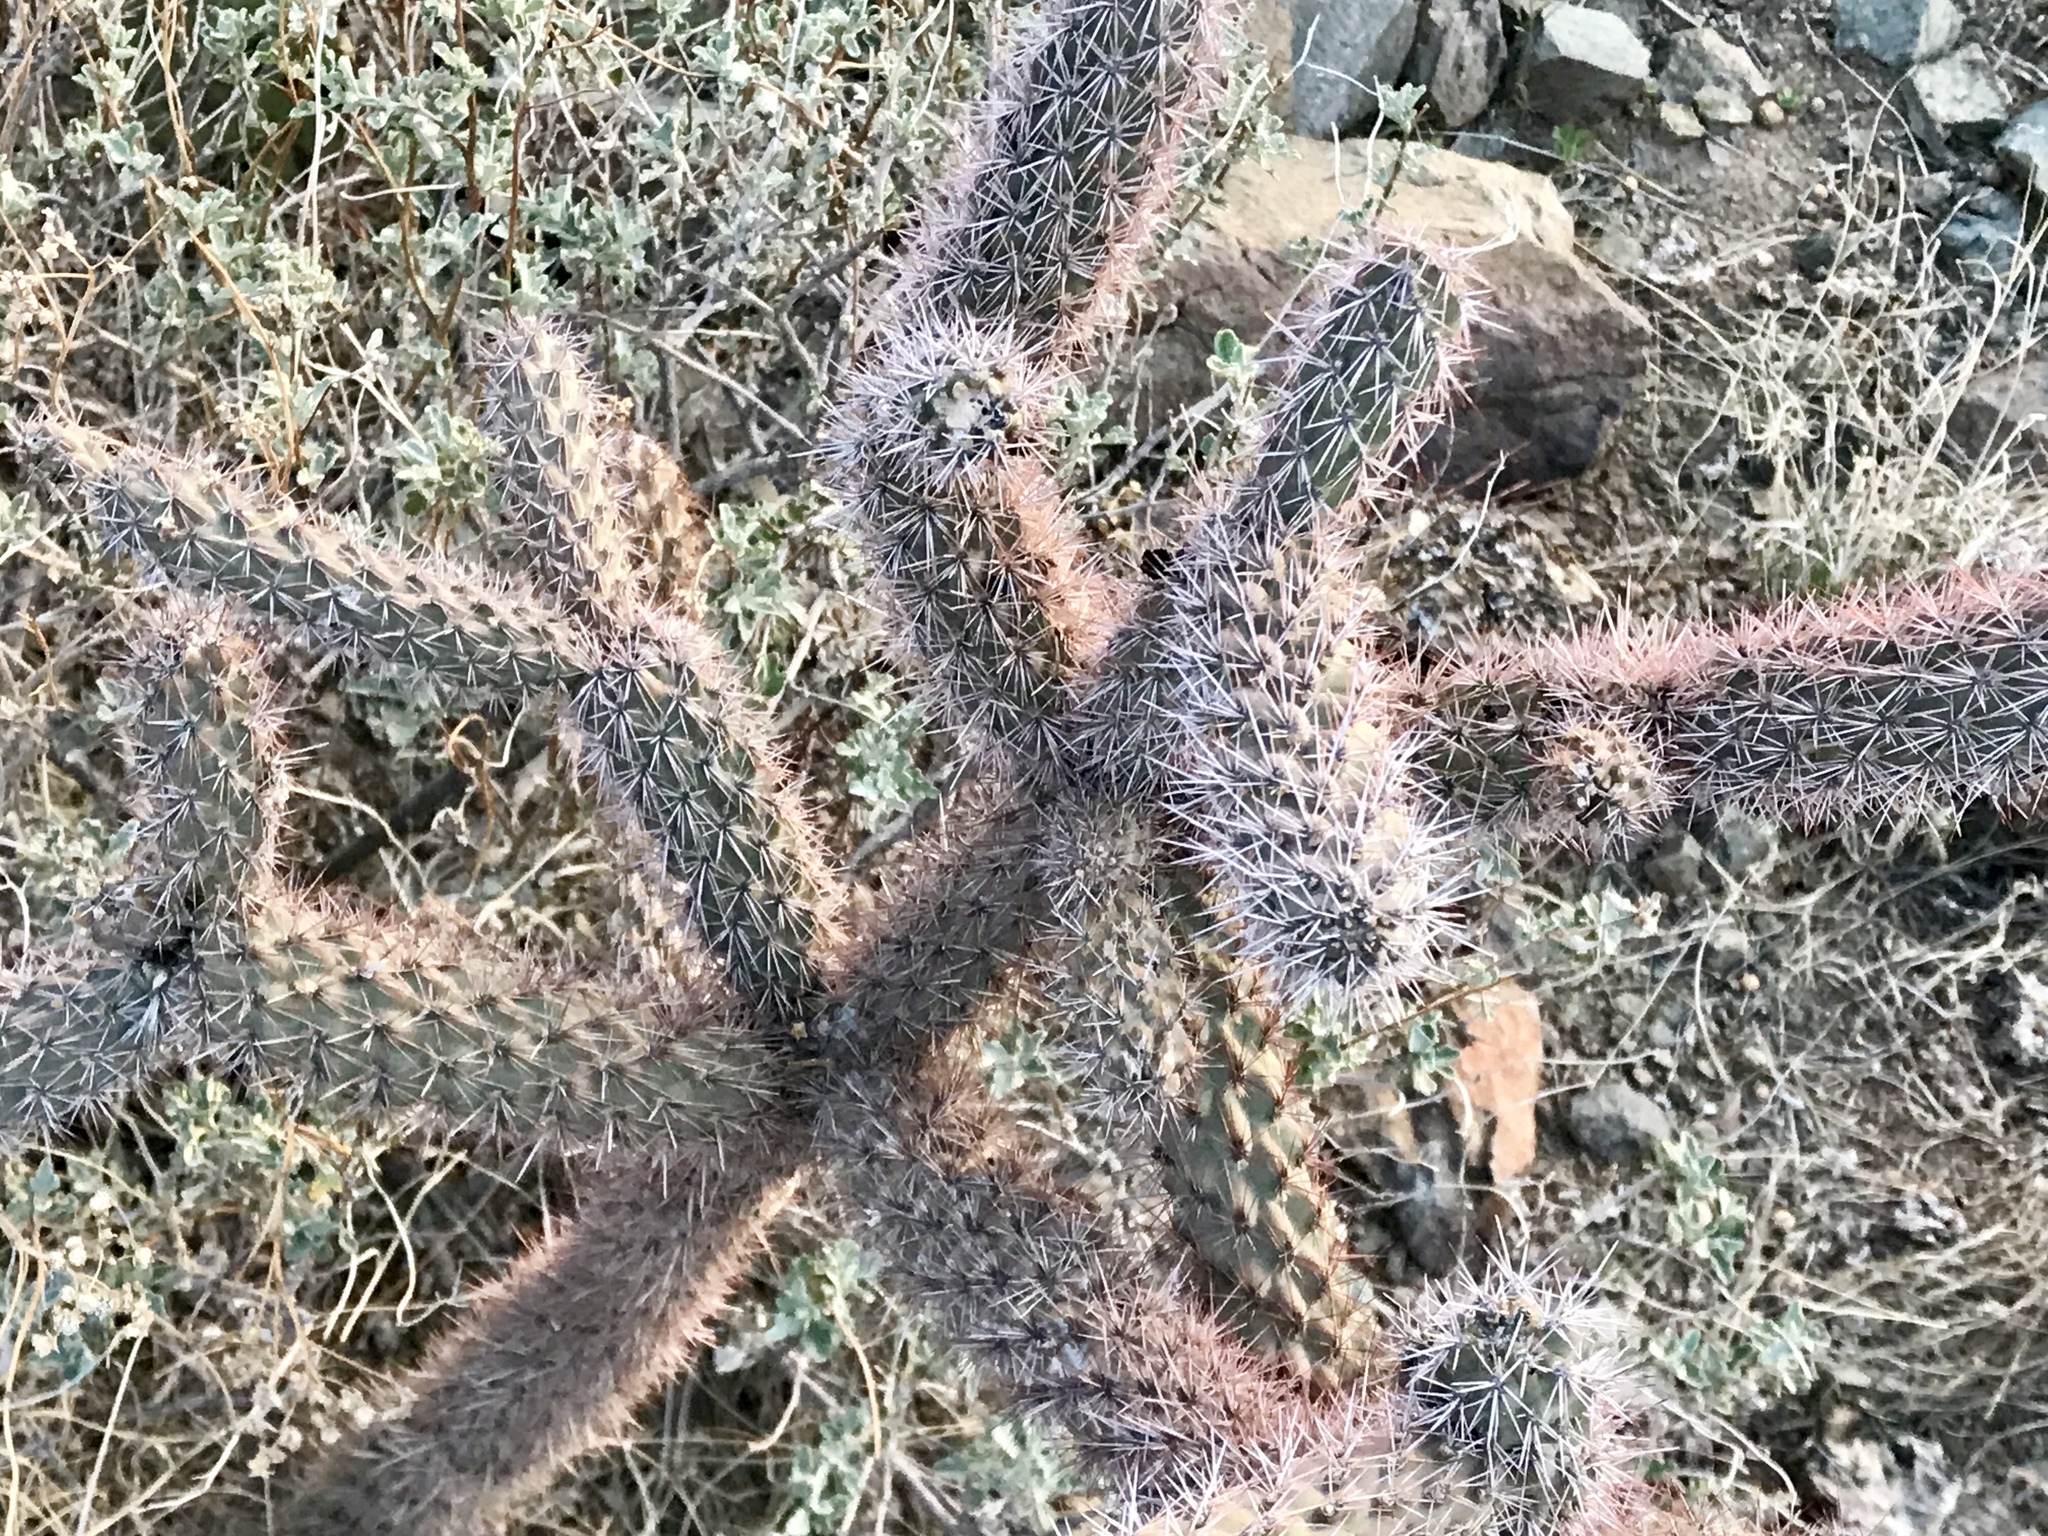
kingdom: Plantae
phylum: Tracheophyta
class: Magnoliopsida
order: Caryophyllales
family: Cactaceae
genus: Cylindropuntia
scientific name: Cylindropuntia imbricata
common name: Candelabrum cactus
